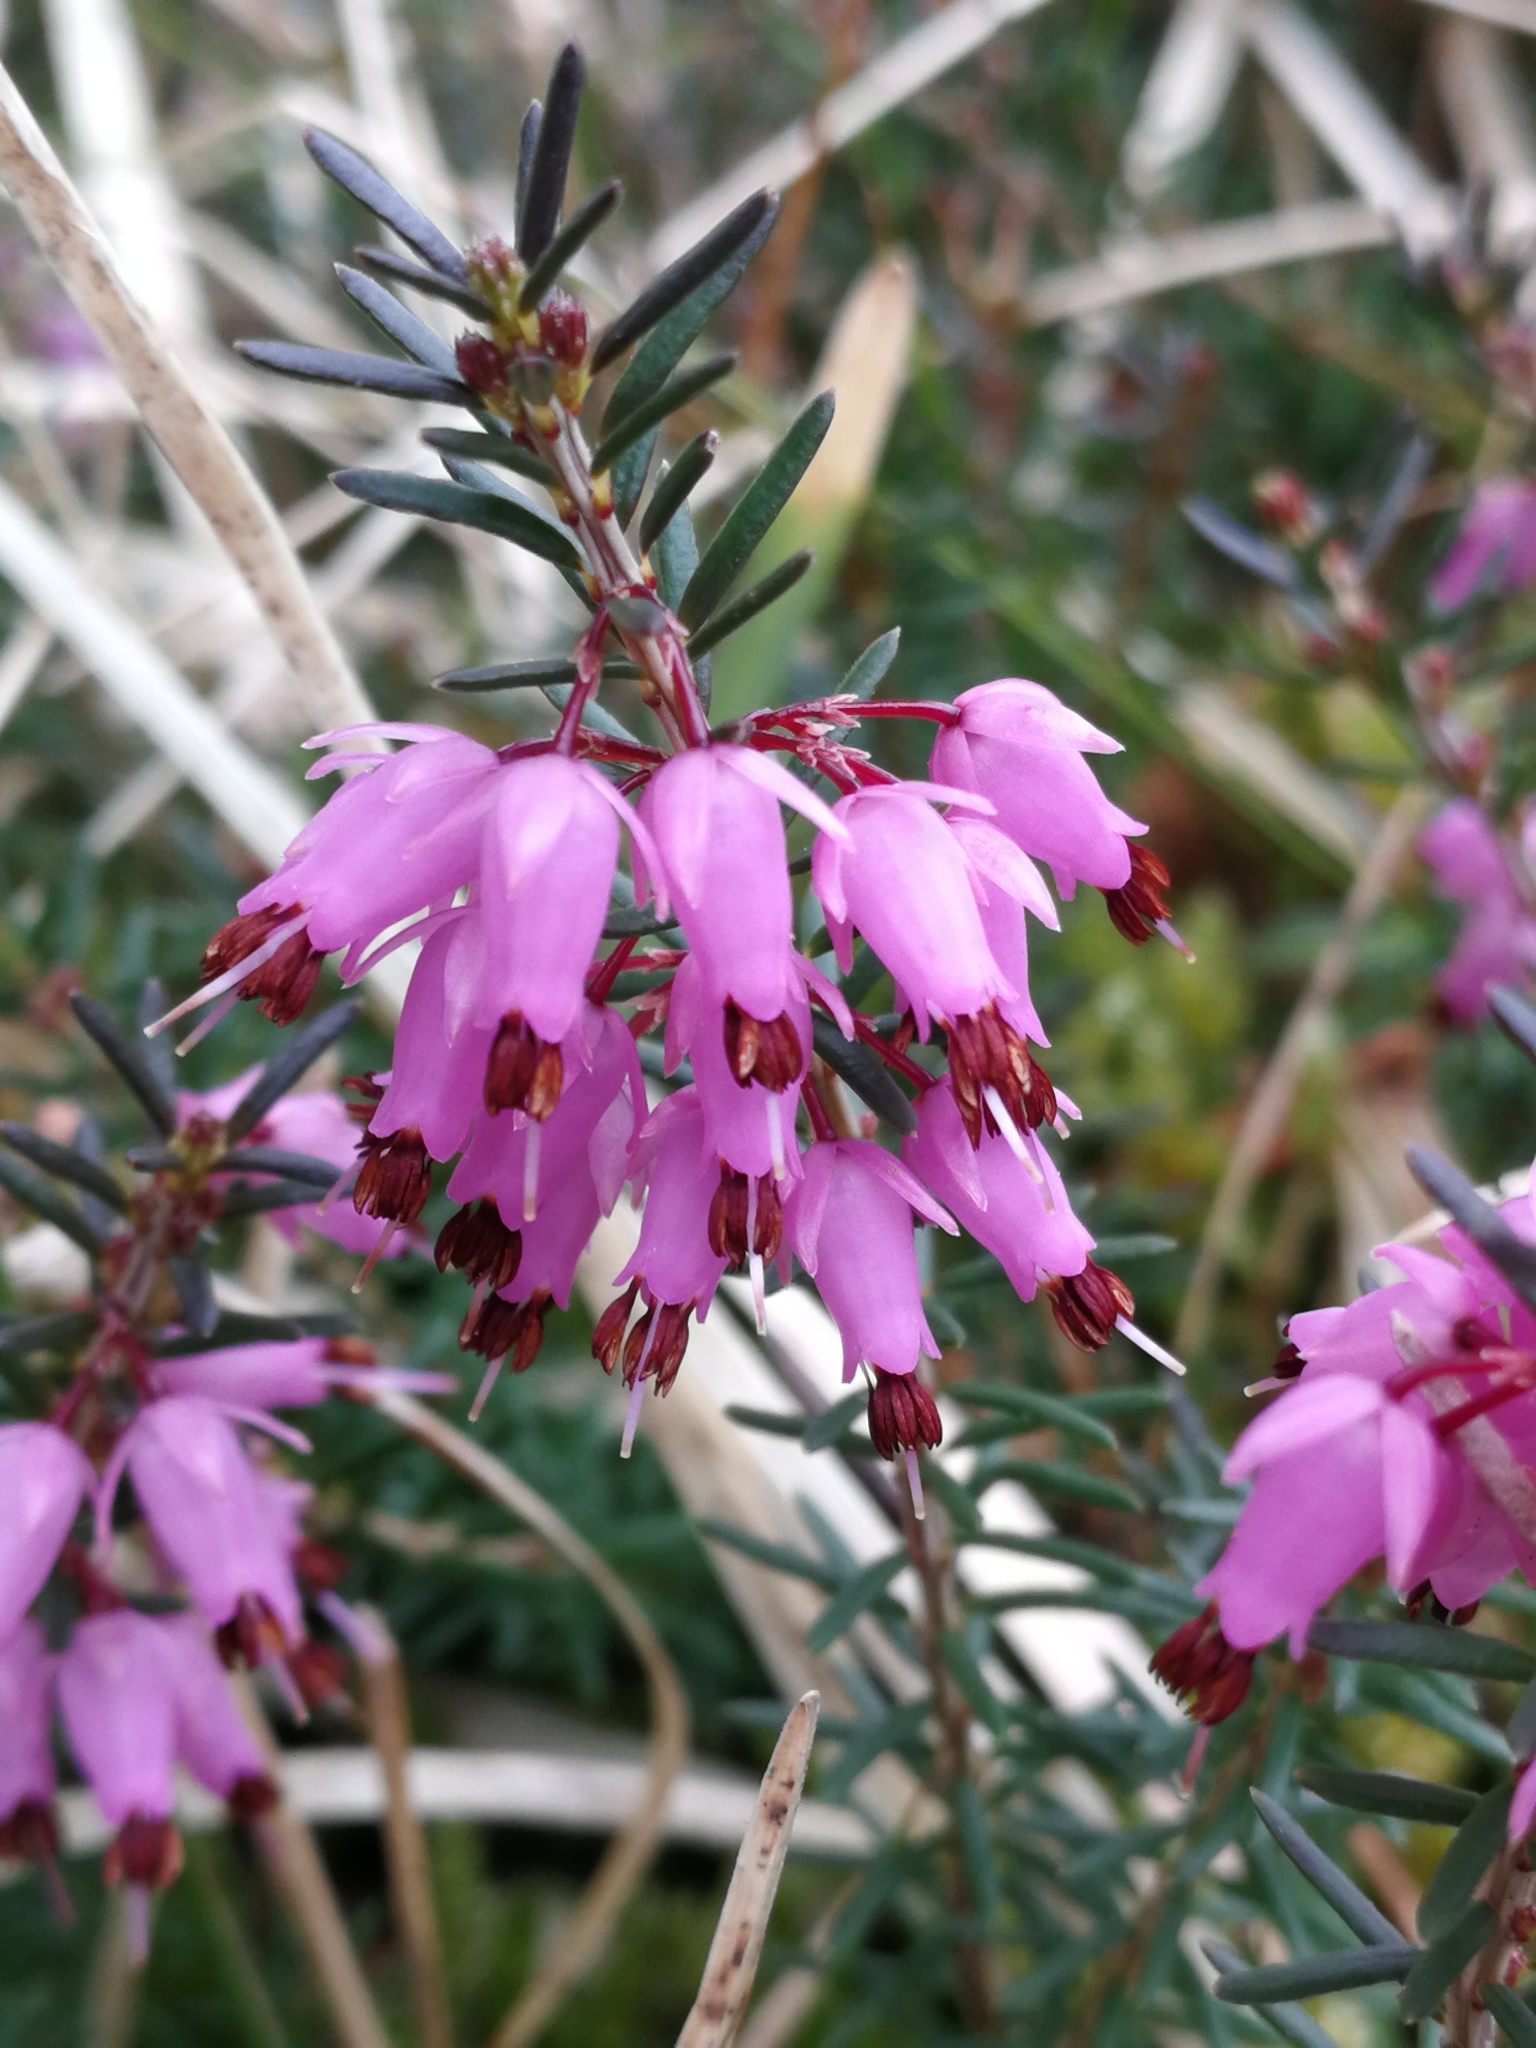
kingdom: Plantae
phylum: Tracheophyta
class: Magnoliopsida
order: Ericales
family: Ericaceae
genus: Erica
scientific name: Erica carnea
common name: Winter heath
